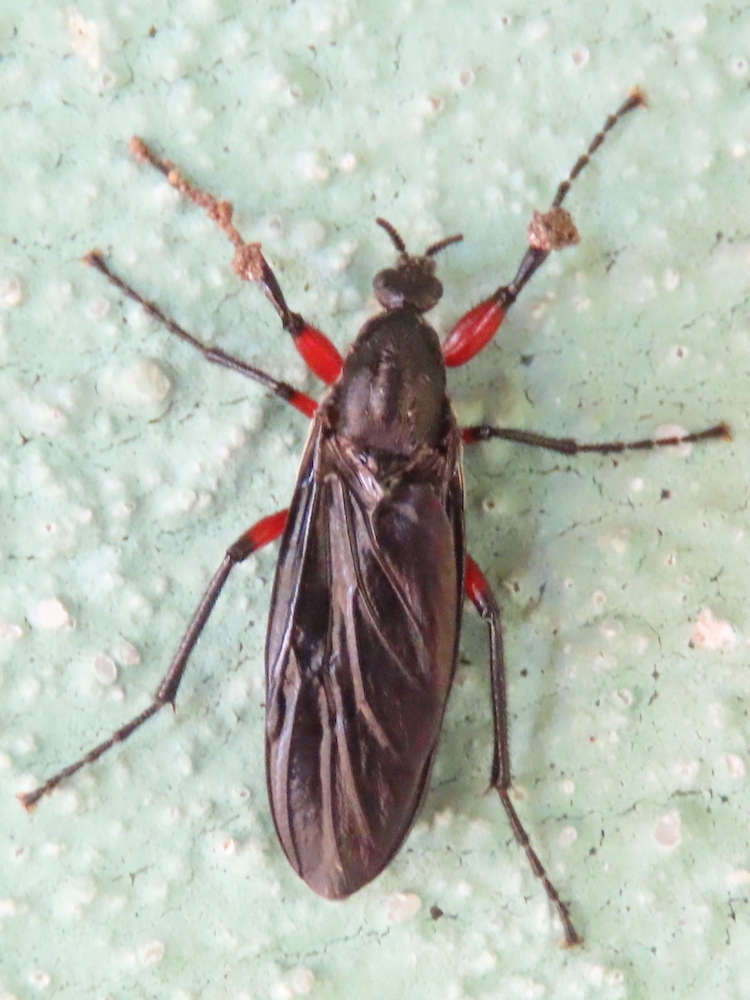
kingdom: Animalia
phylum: Arthropoda
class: Insecta
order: Diptera
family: Bibionidae
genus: Bibio
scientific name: Bibio femoratus
